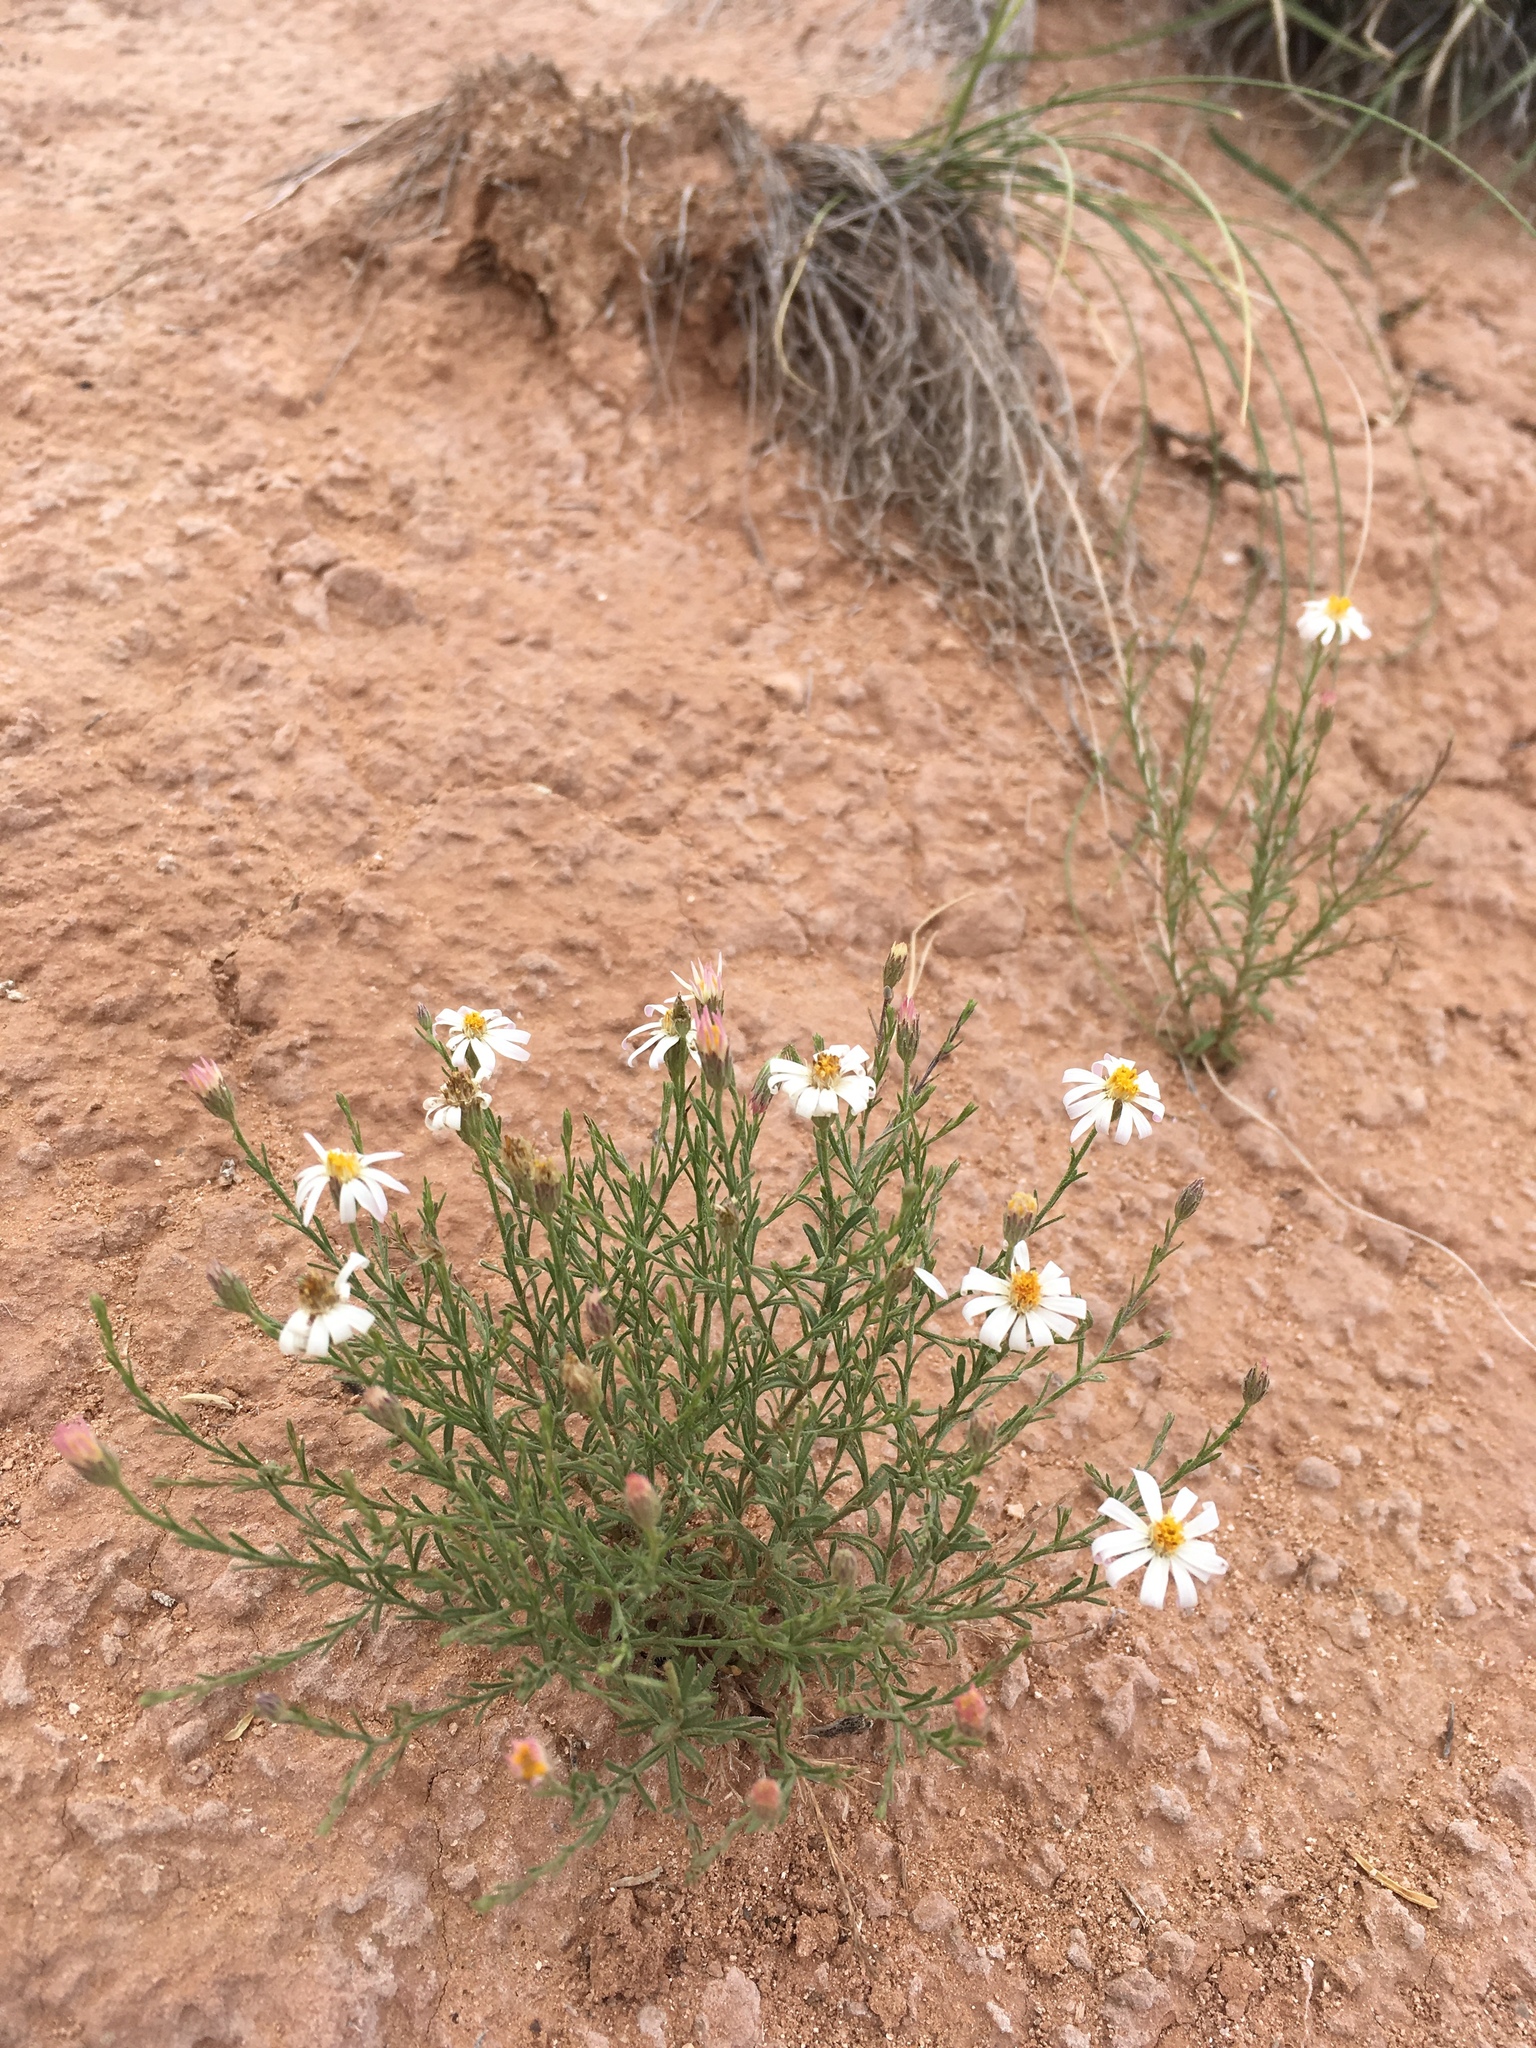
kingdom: Plantae
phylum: Tracheophyta
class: Magnoliopsida
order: Asterales
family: Asteraceae
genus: Chaetopappa
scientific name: Chaetopappa ericoides
